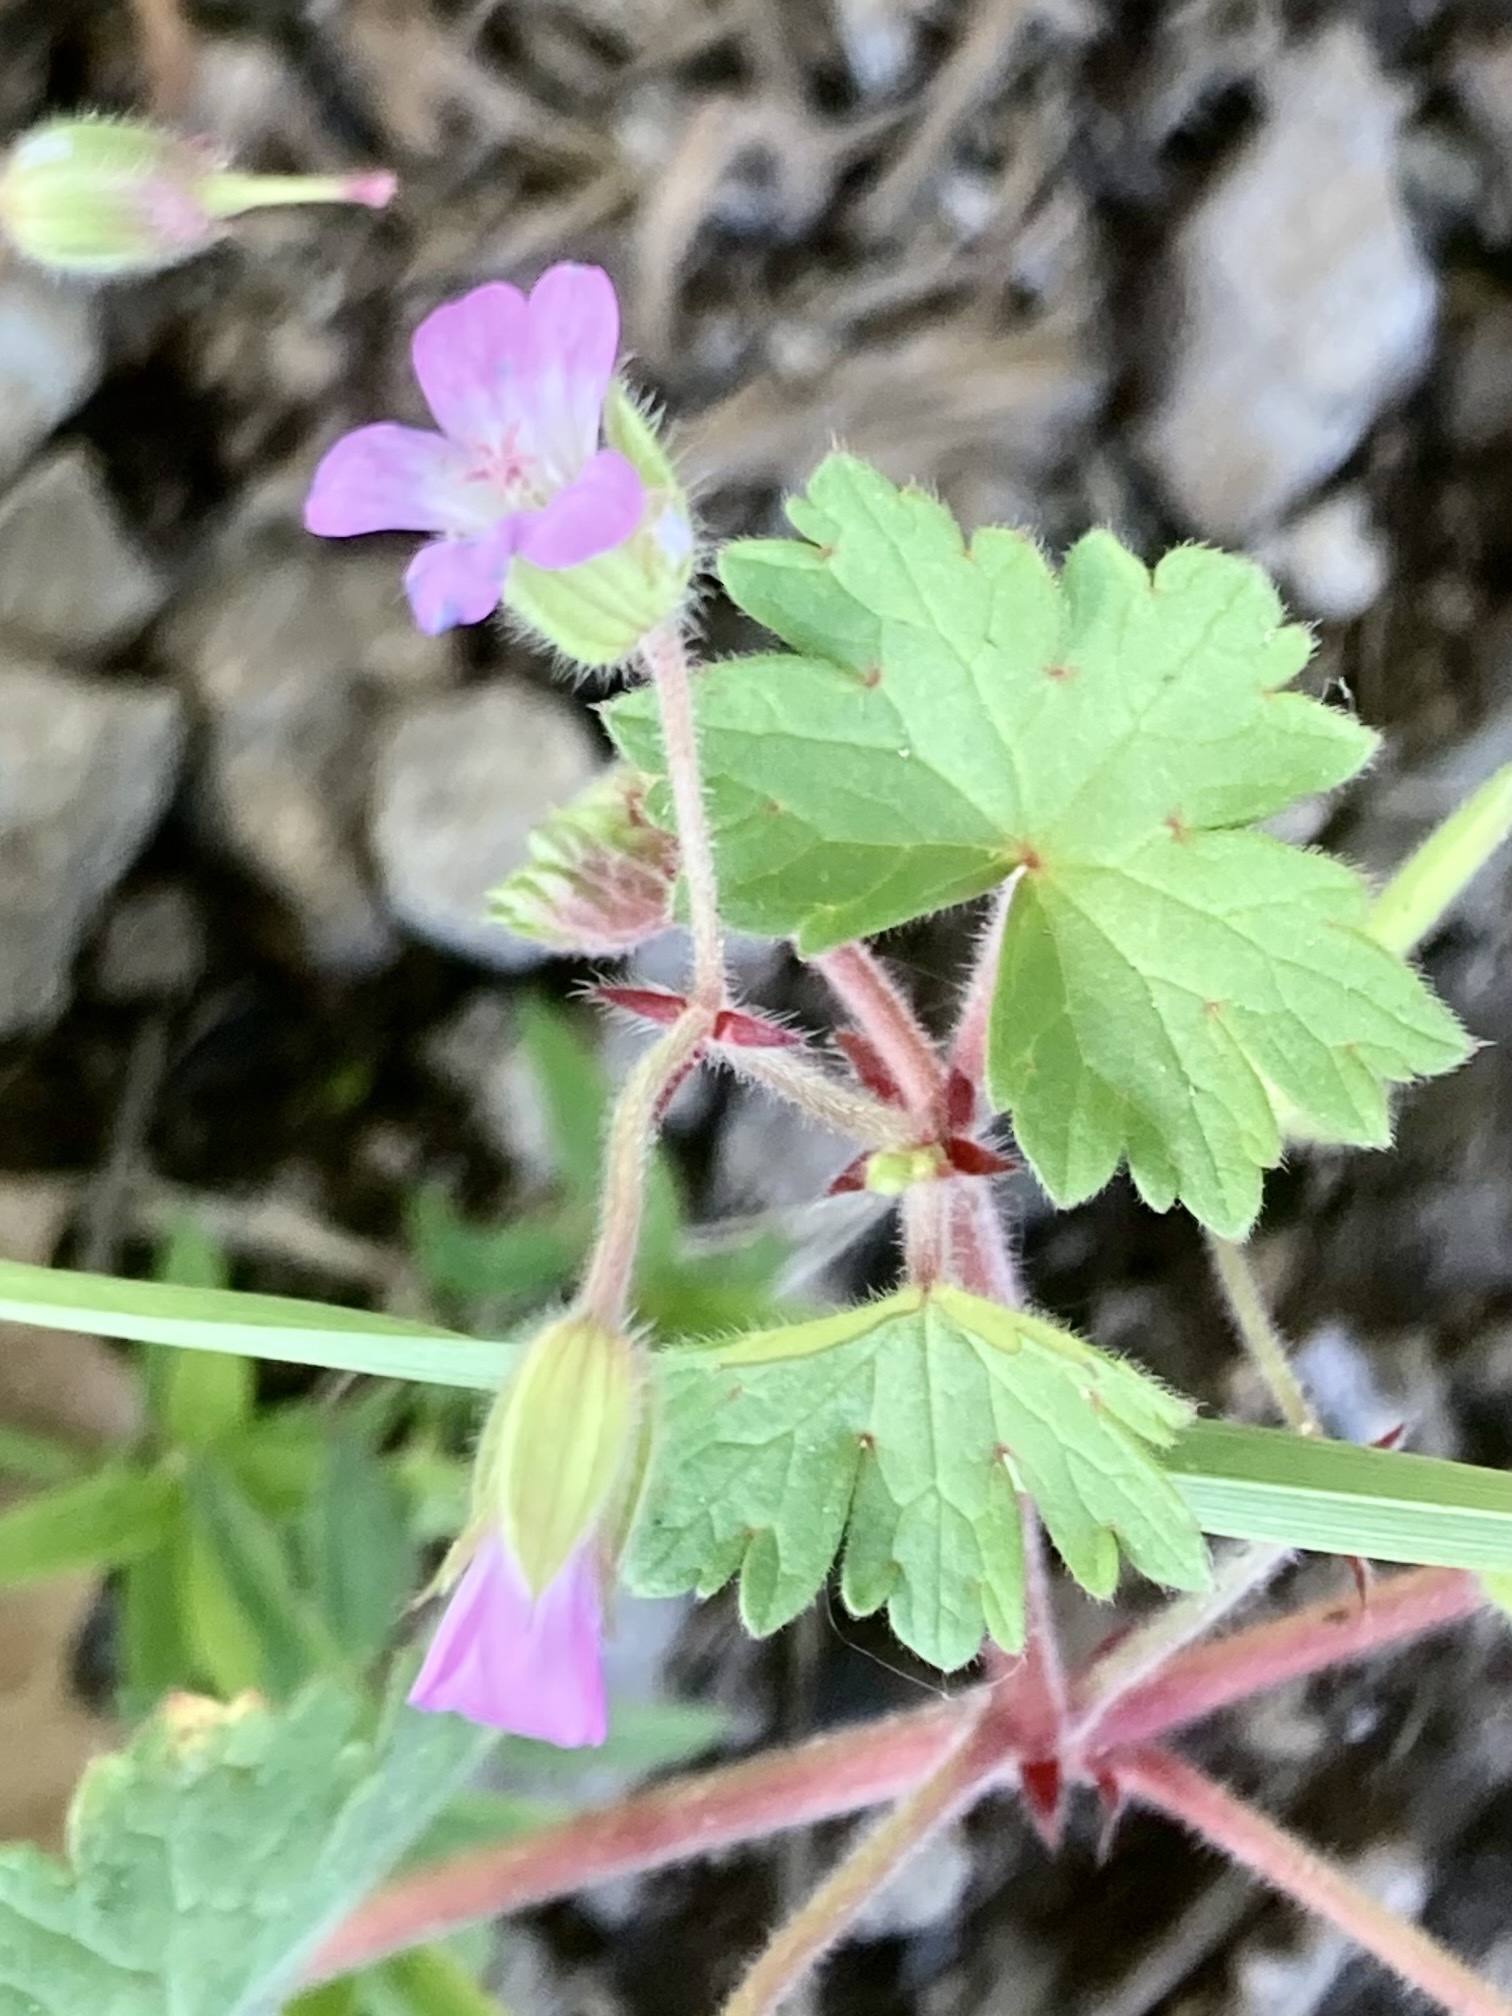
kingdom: Plantae
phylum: Tracheophyta
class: Magnoliopsida
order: Geraniales
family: Geraniaceae
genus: Geranium
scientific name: Geranium rotundifolium
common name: Round-leaved crane's-bill
